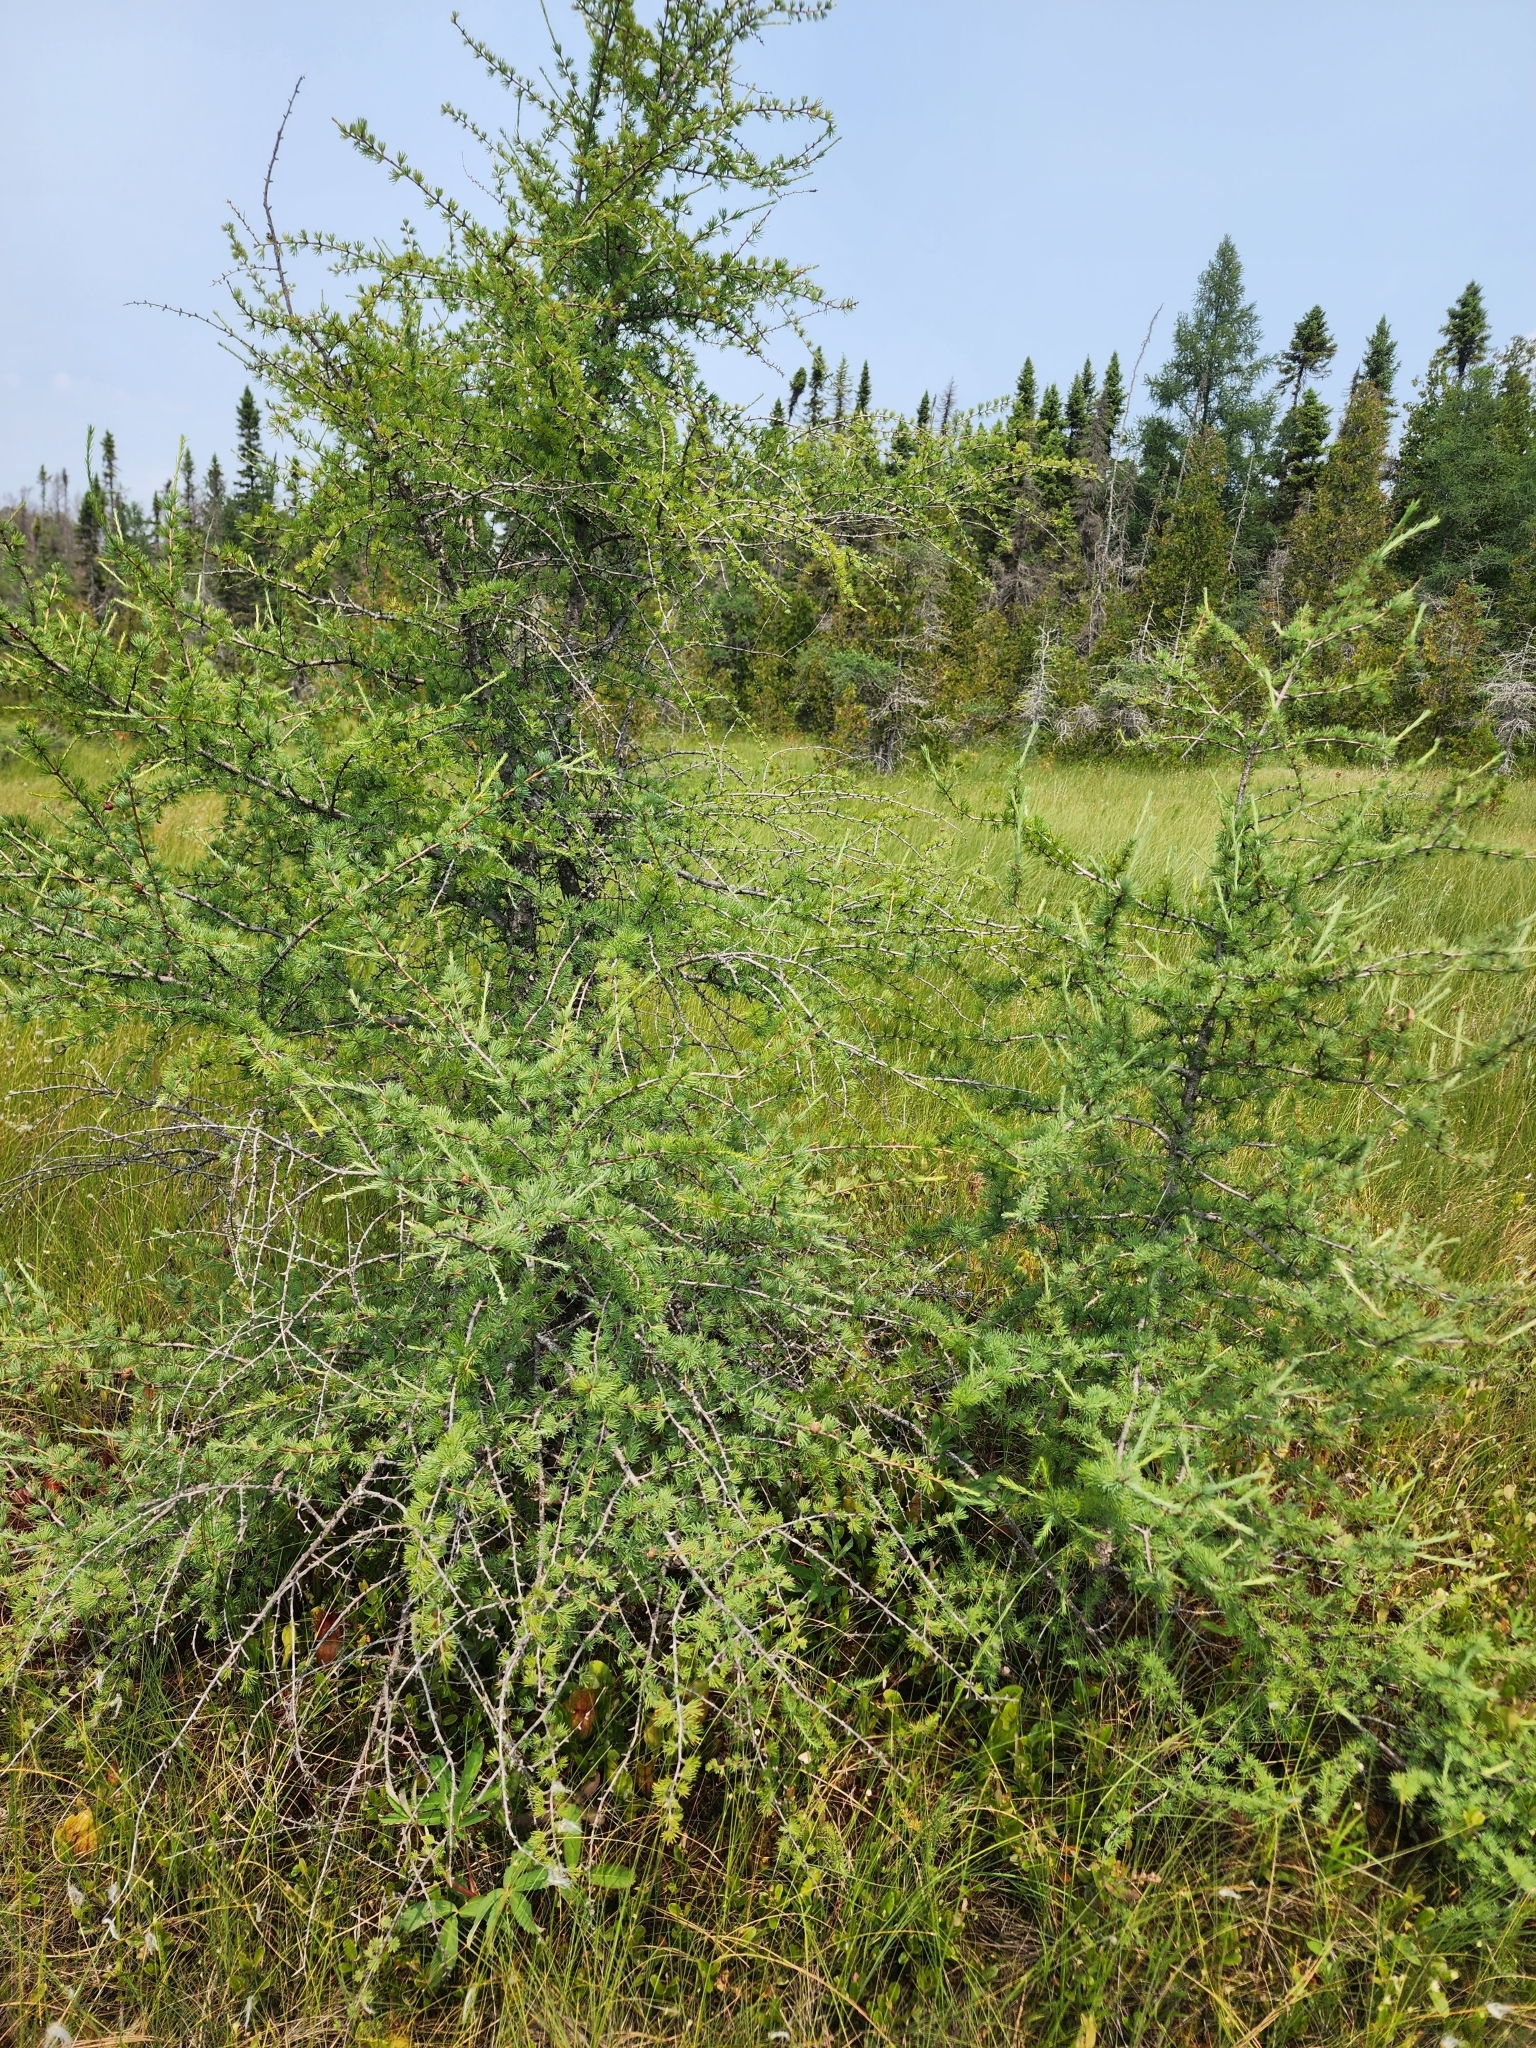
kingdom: Plantae
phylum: Tracheophyta
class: Pinopsida
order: Pinales
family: Pinaceae
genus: Larix
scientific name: Larix laricina
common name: American larch
